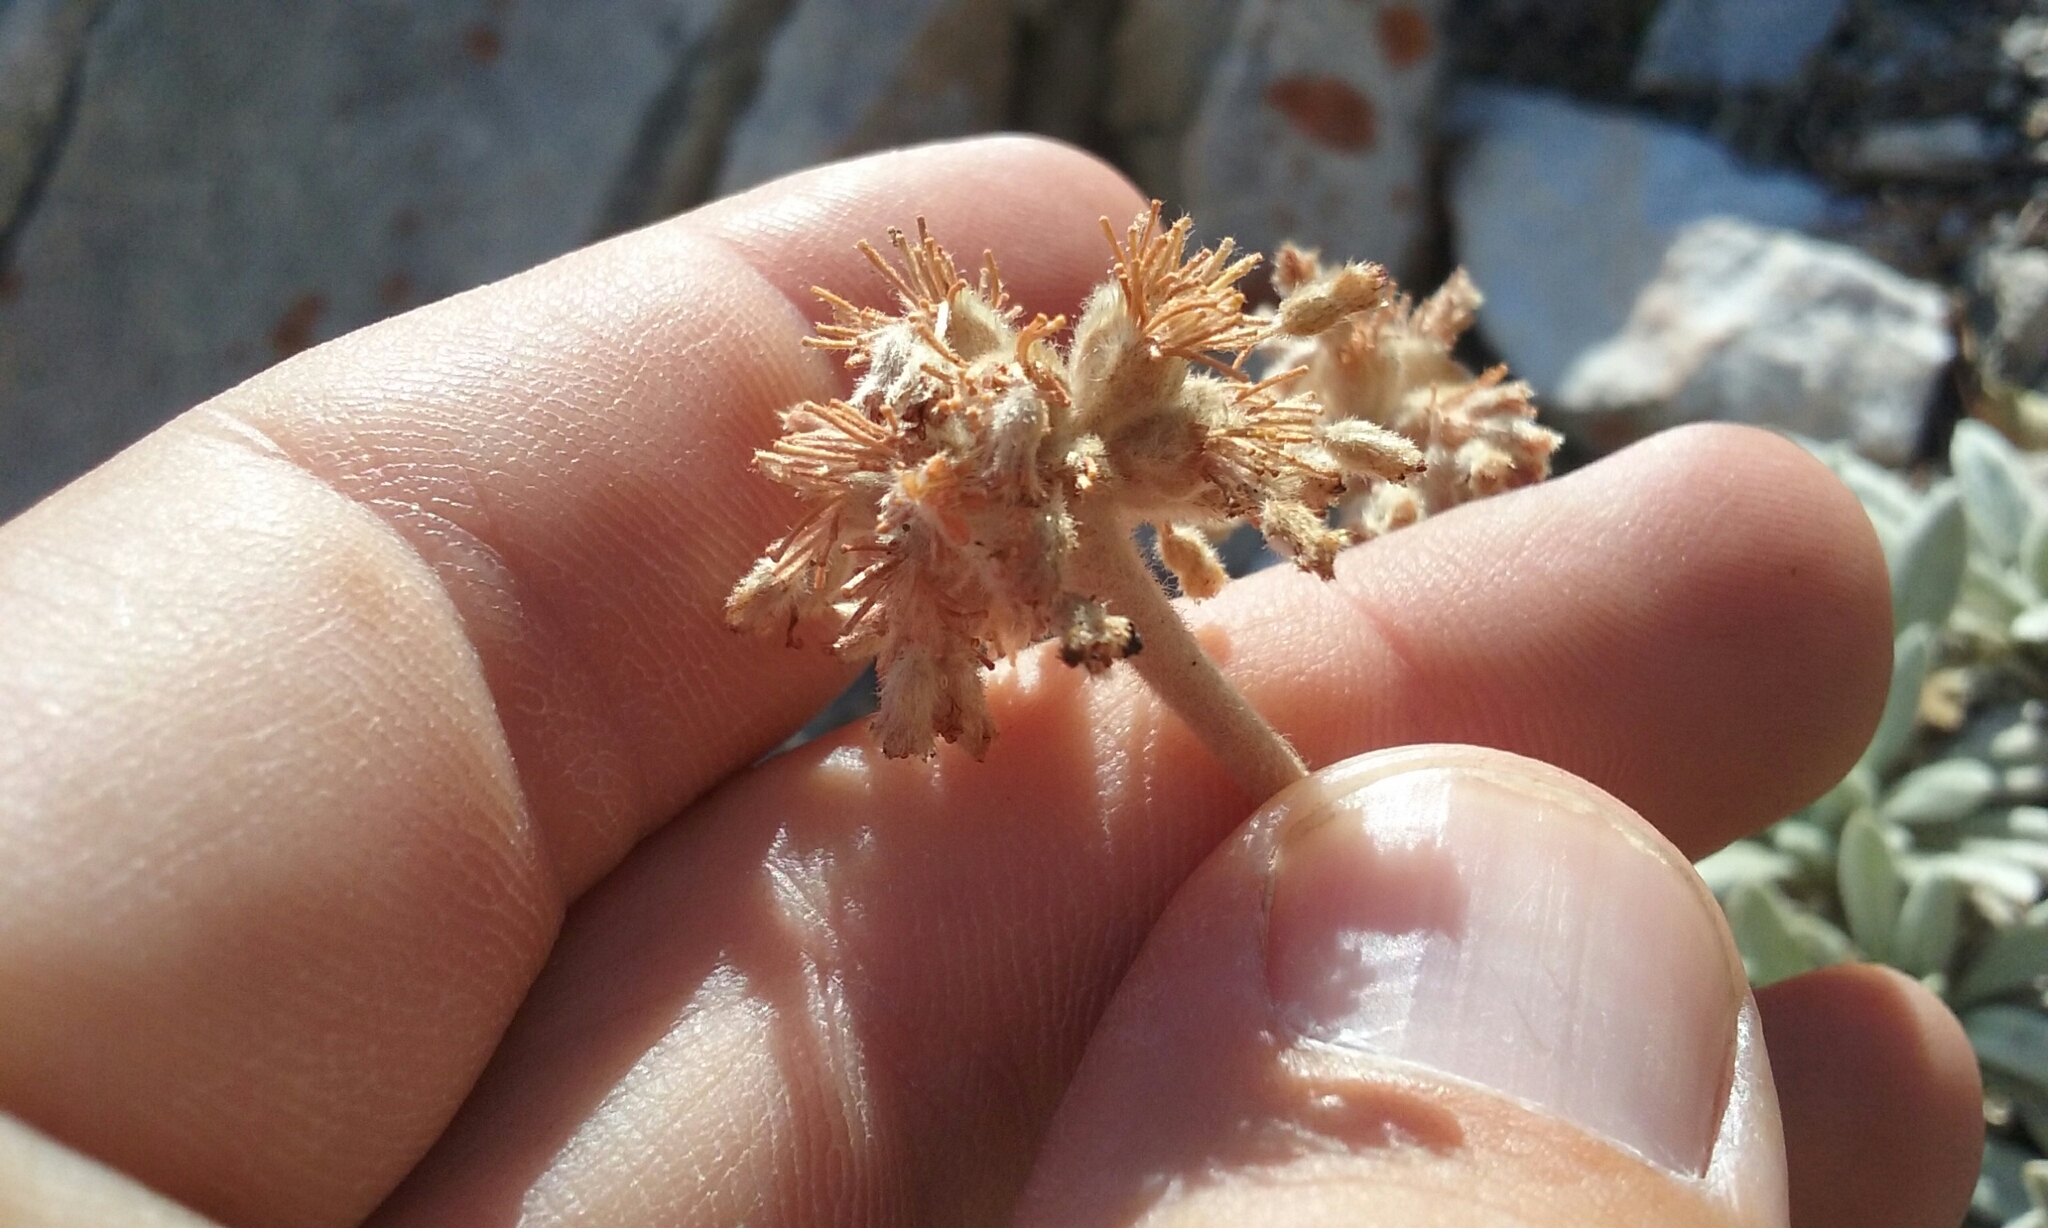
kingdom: Plantae
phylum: Tracheophyta
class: Magnoliopsida
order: Caryophyllales
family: Polygonaceae
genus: Eriogonum
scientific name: Eriogonum callistum
